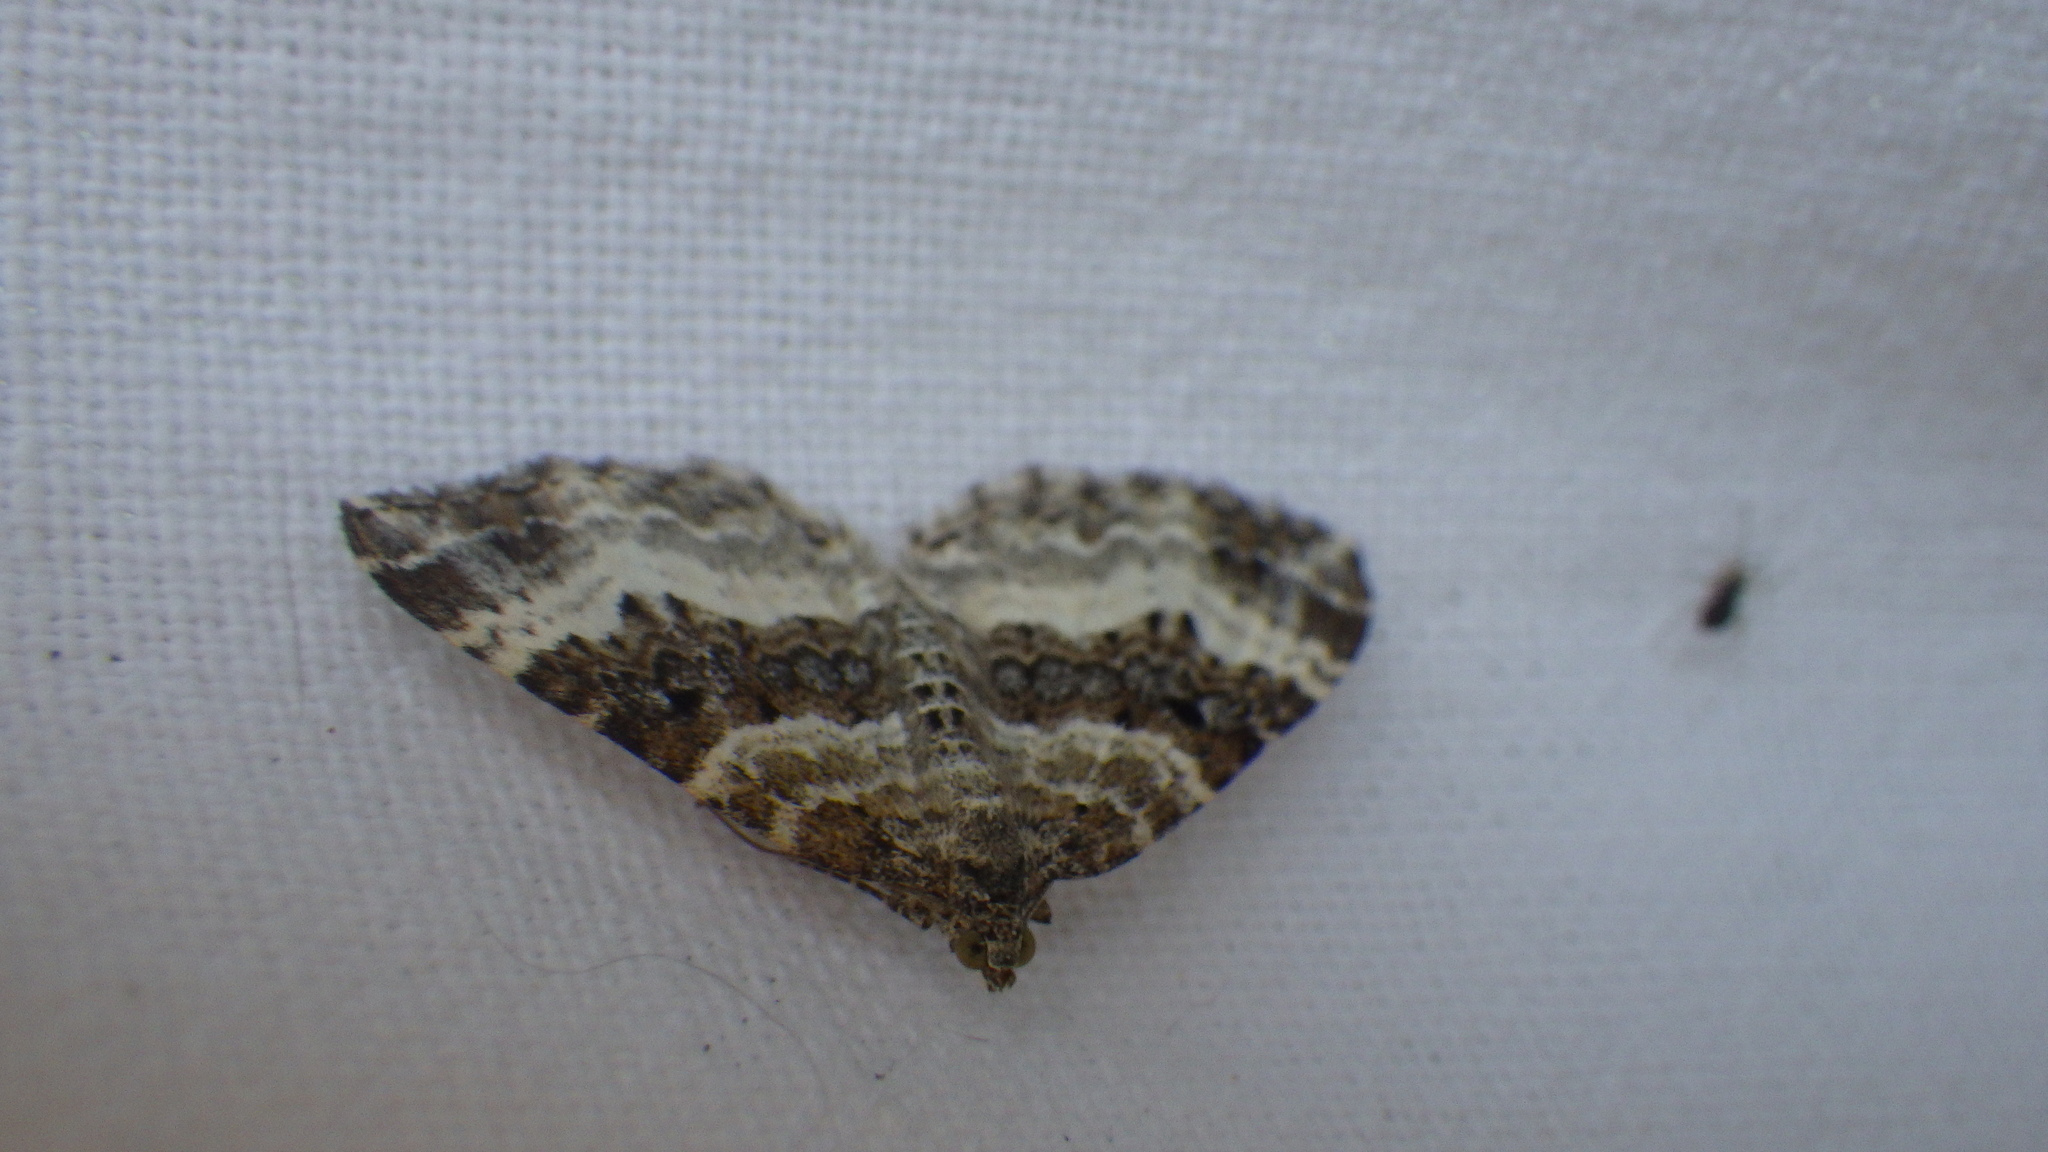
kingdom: Animalia
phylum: Arthropoda
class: Insecta
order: Lepidoptera
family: Geometridae
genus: Epirrhoe
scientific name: Epirrhoe alternata
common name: Common carpet
